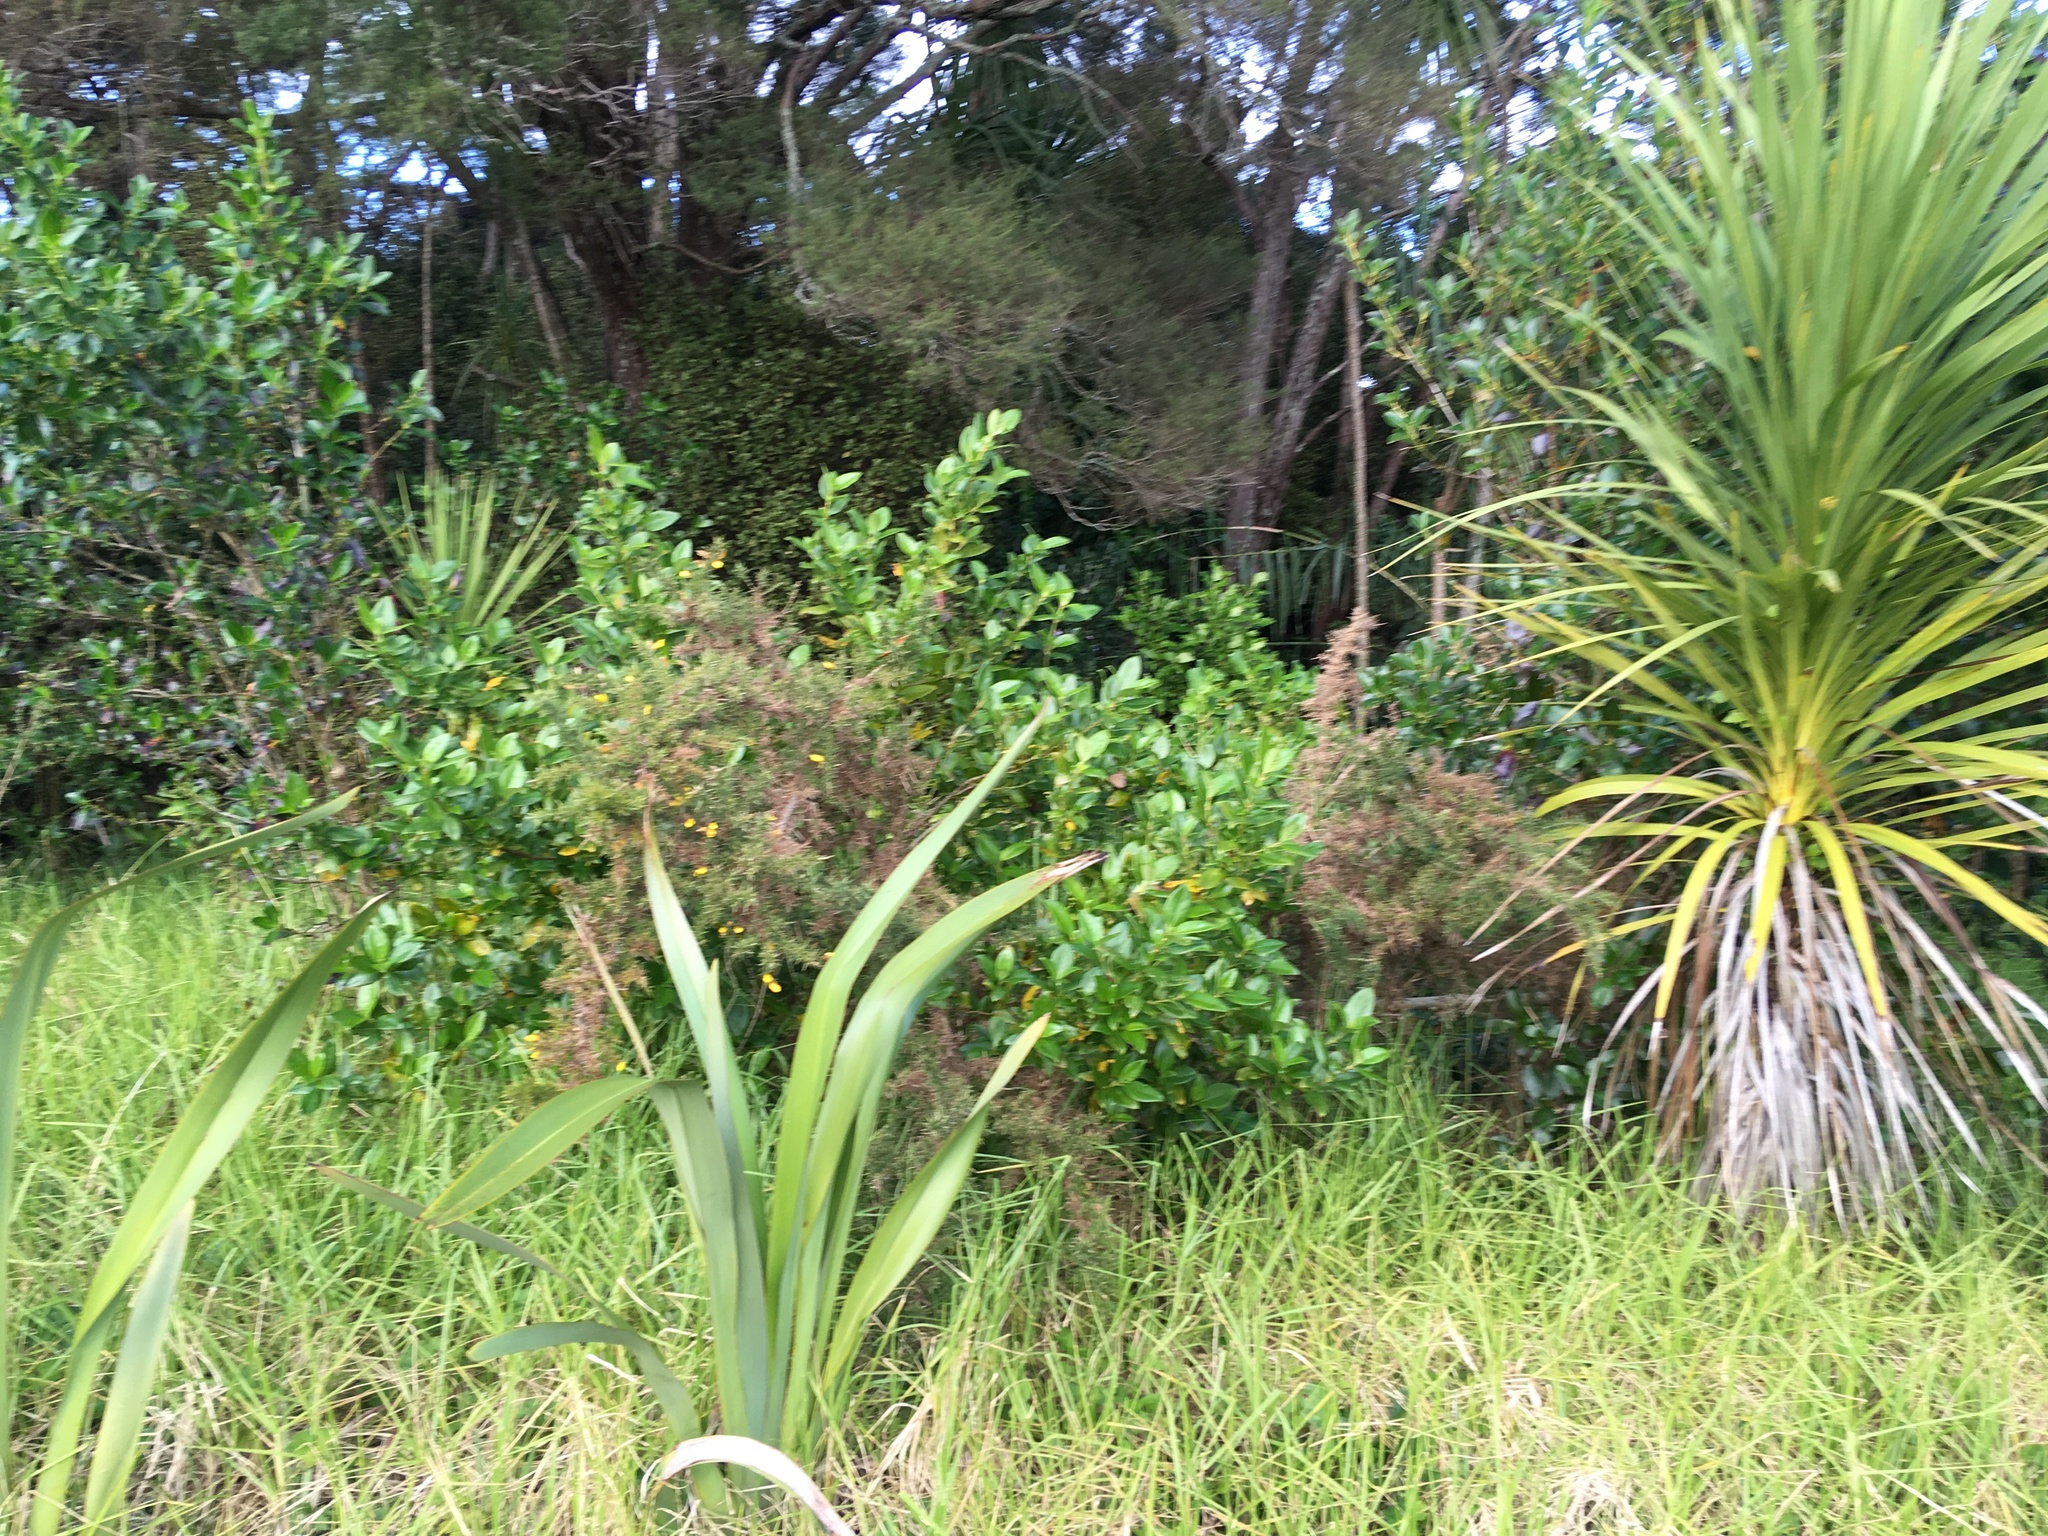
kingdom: Plantae
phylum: Tracheophyta
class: Magnoliopsida
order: Fabales
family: Fabaceae
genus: Ulex
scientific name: Ulex europaeus
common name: Common gorse
